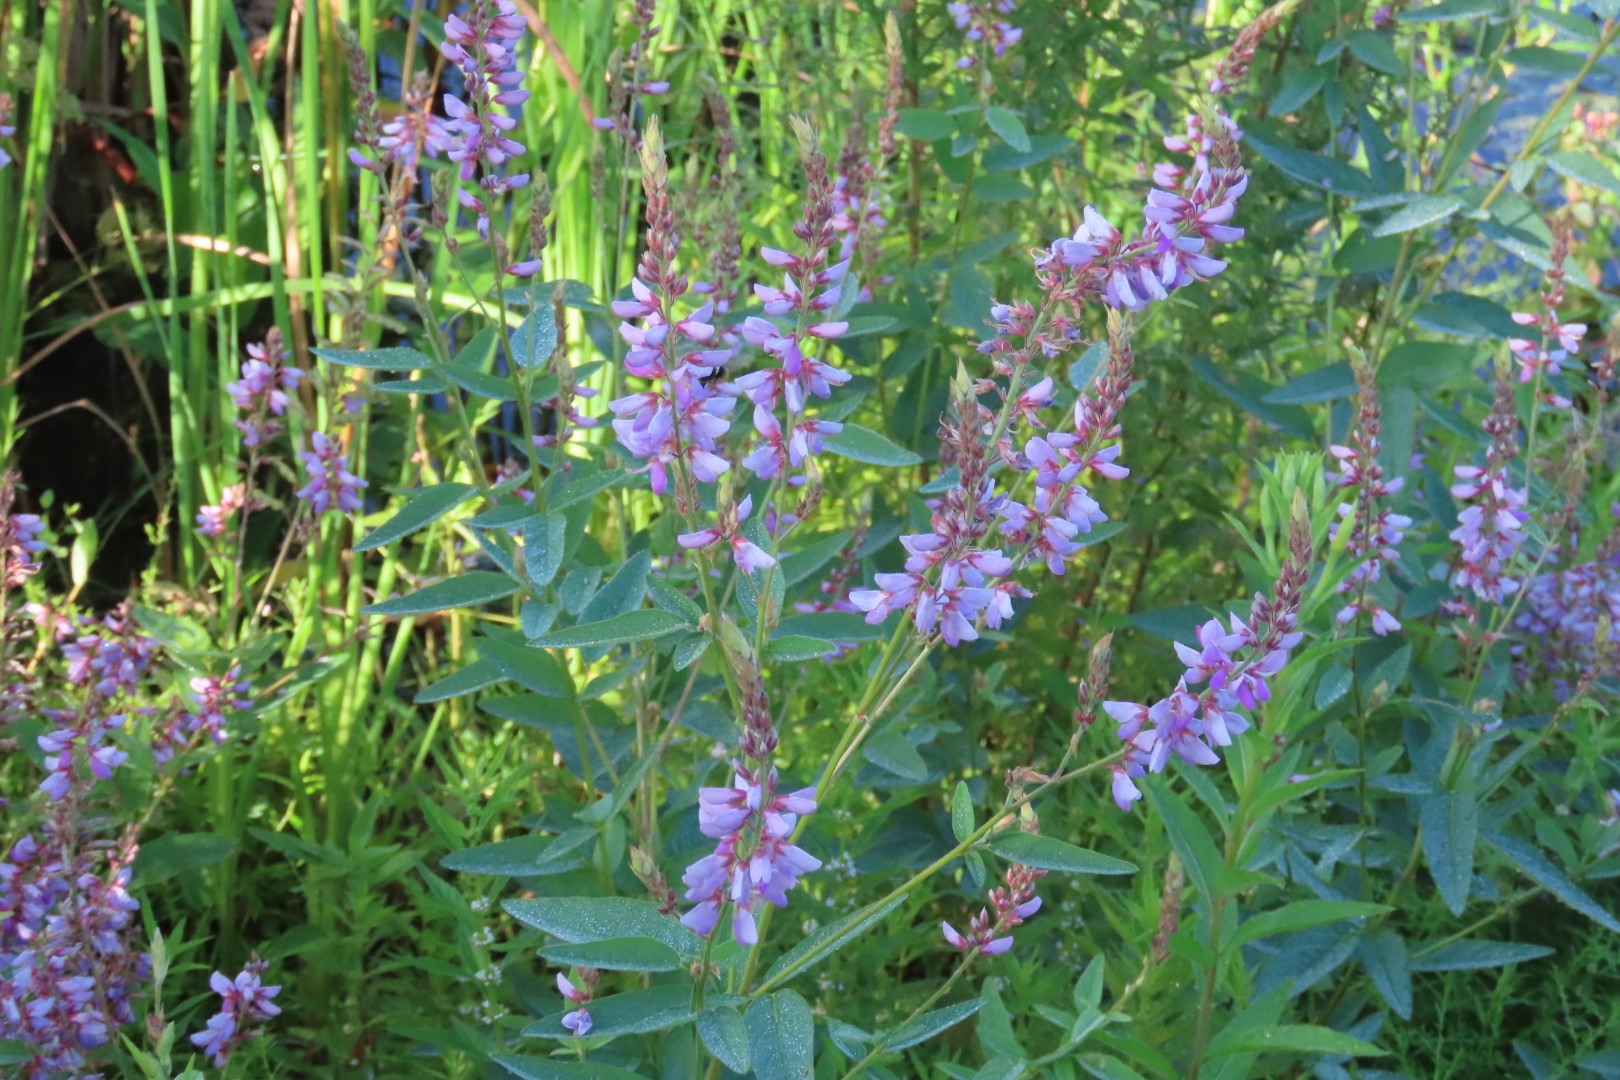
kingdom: Plantae
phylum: Tracheophyta
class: Magnoliopsida
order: Fabales
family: Fabaceae
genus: Desmodium
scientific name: Desmodium canadense
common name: Canada tick-trefoil
